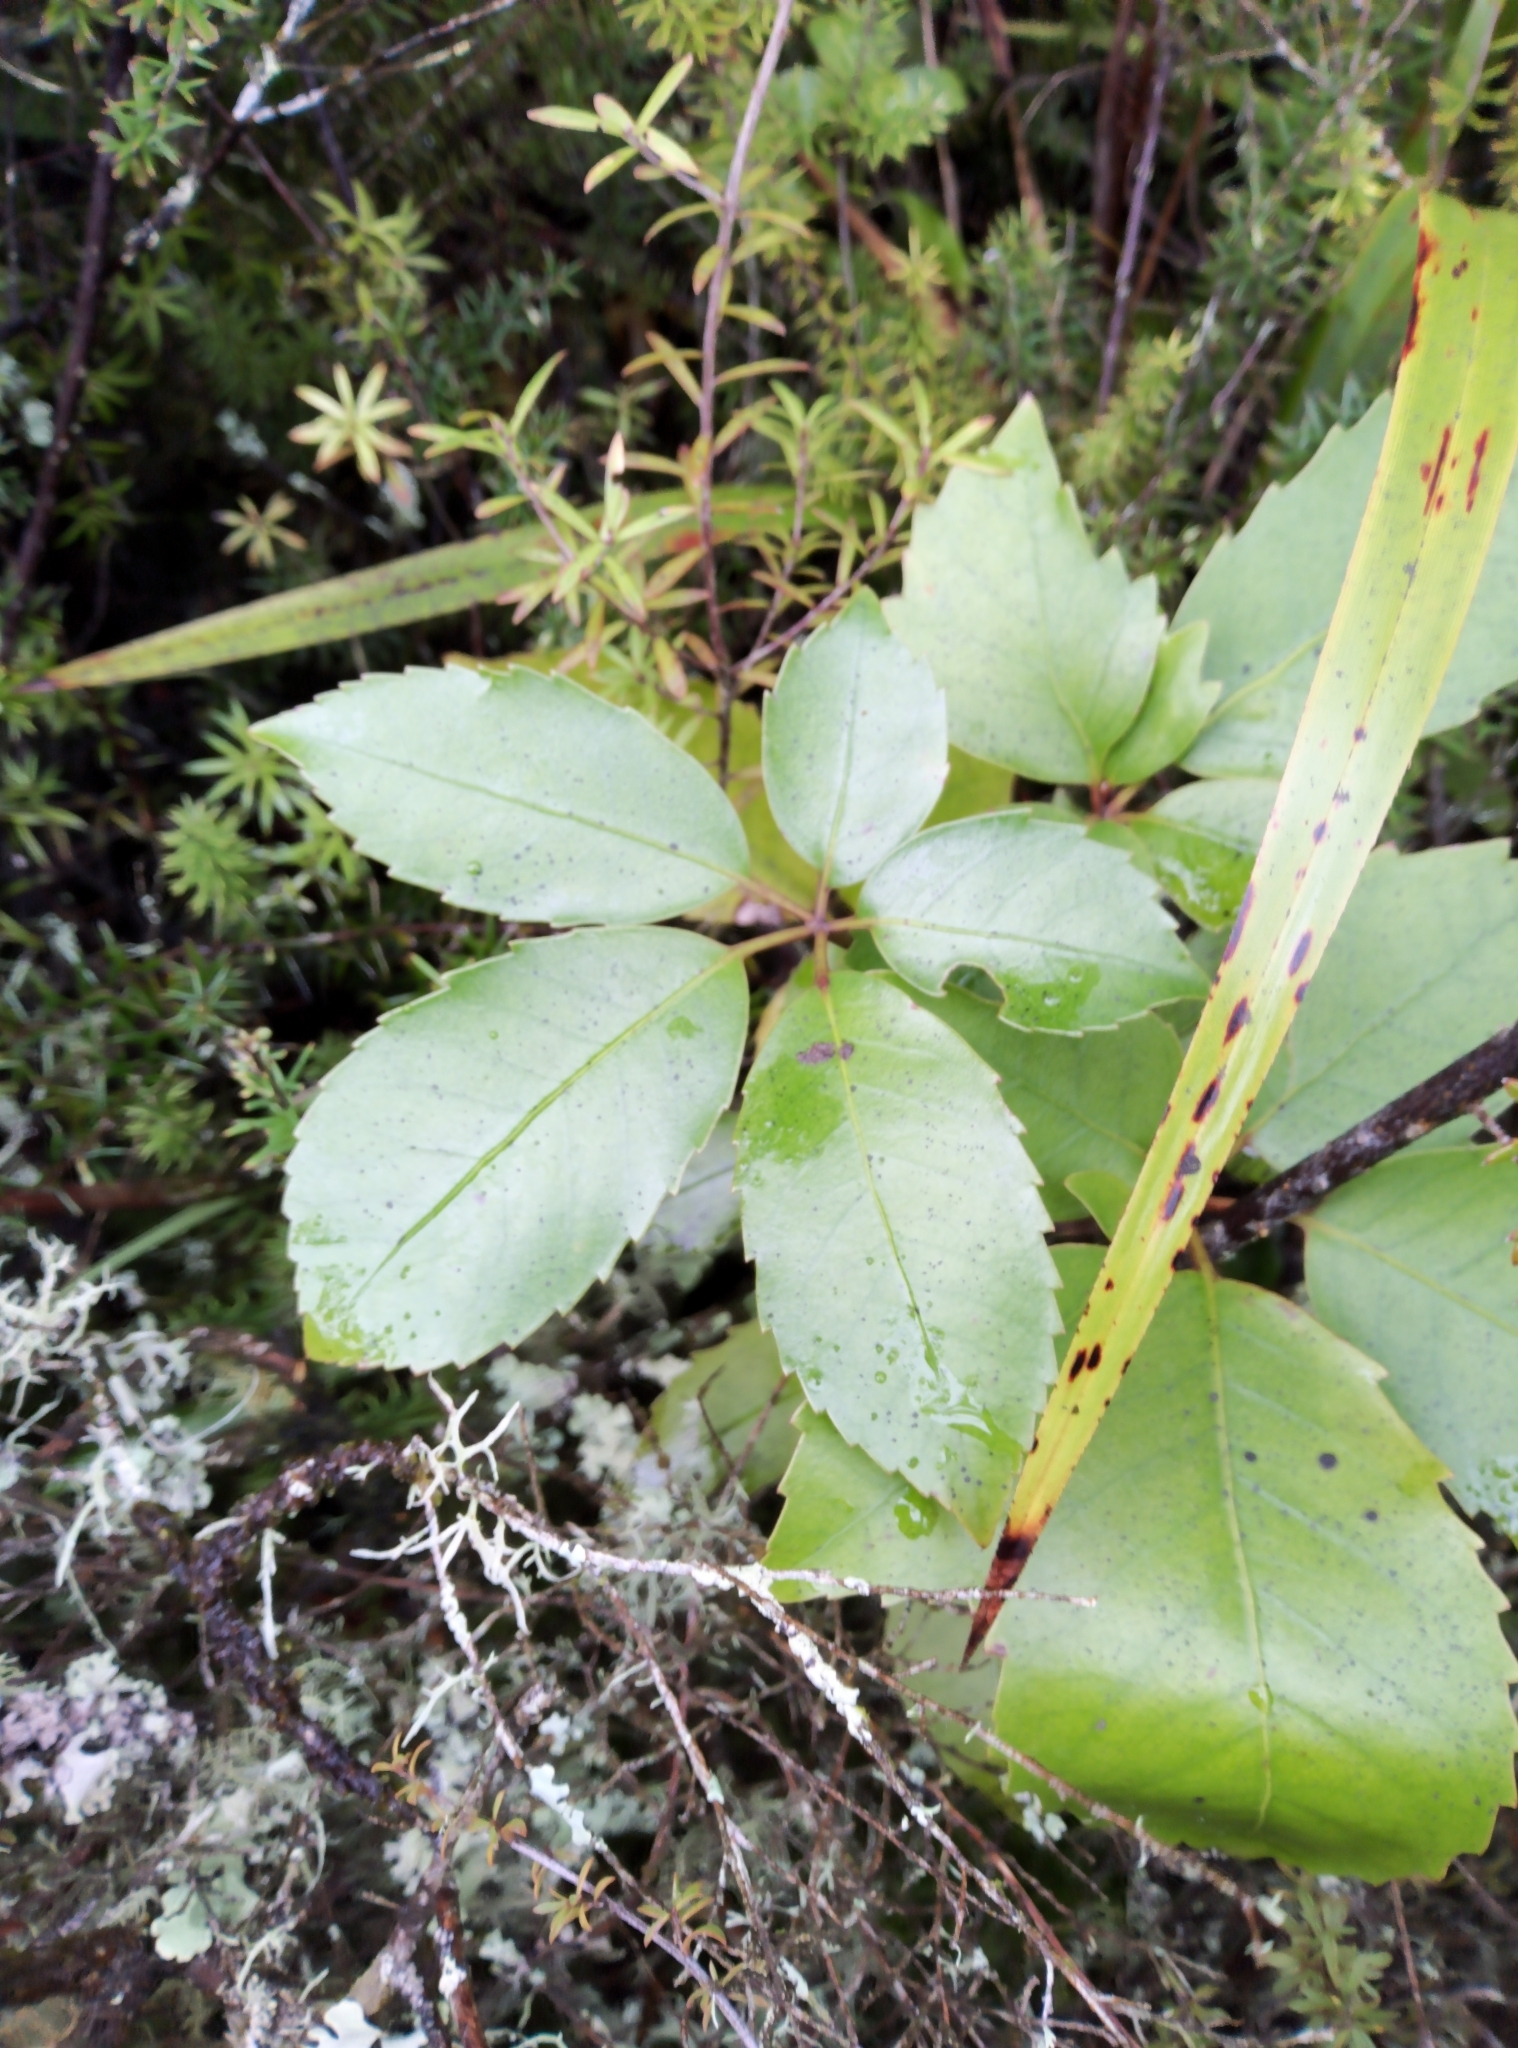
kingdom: Plantae
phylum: Tracheophyta
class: Magnoliopsida
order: Apiales
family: Araliaceae
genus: Neopanax
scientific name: Neopanax arboreus
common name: Five-fingers
